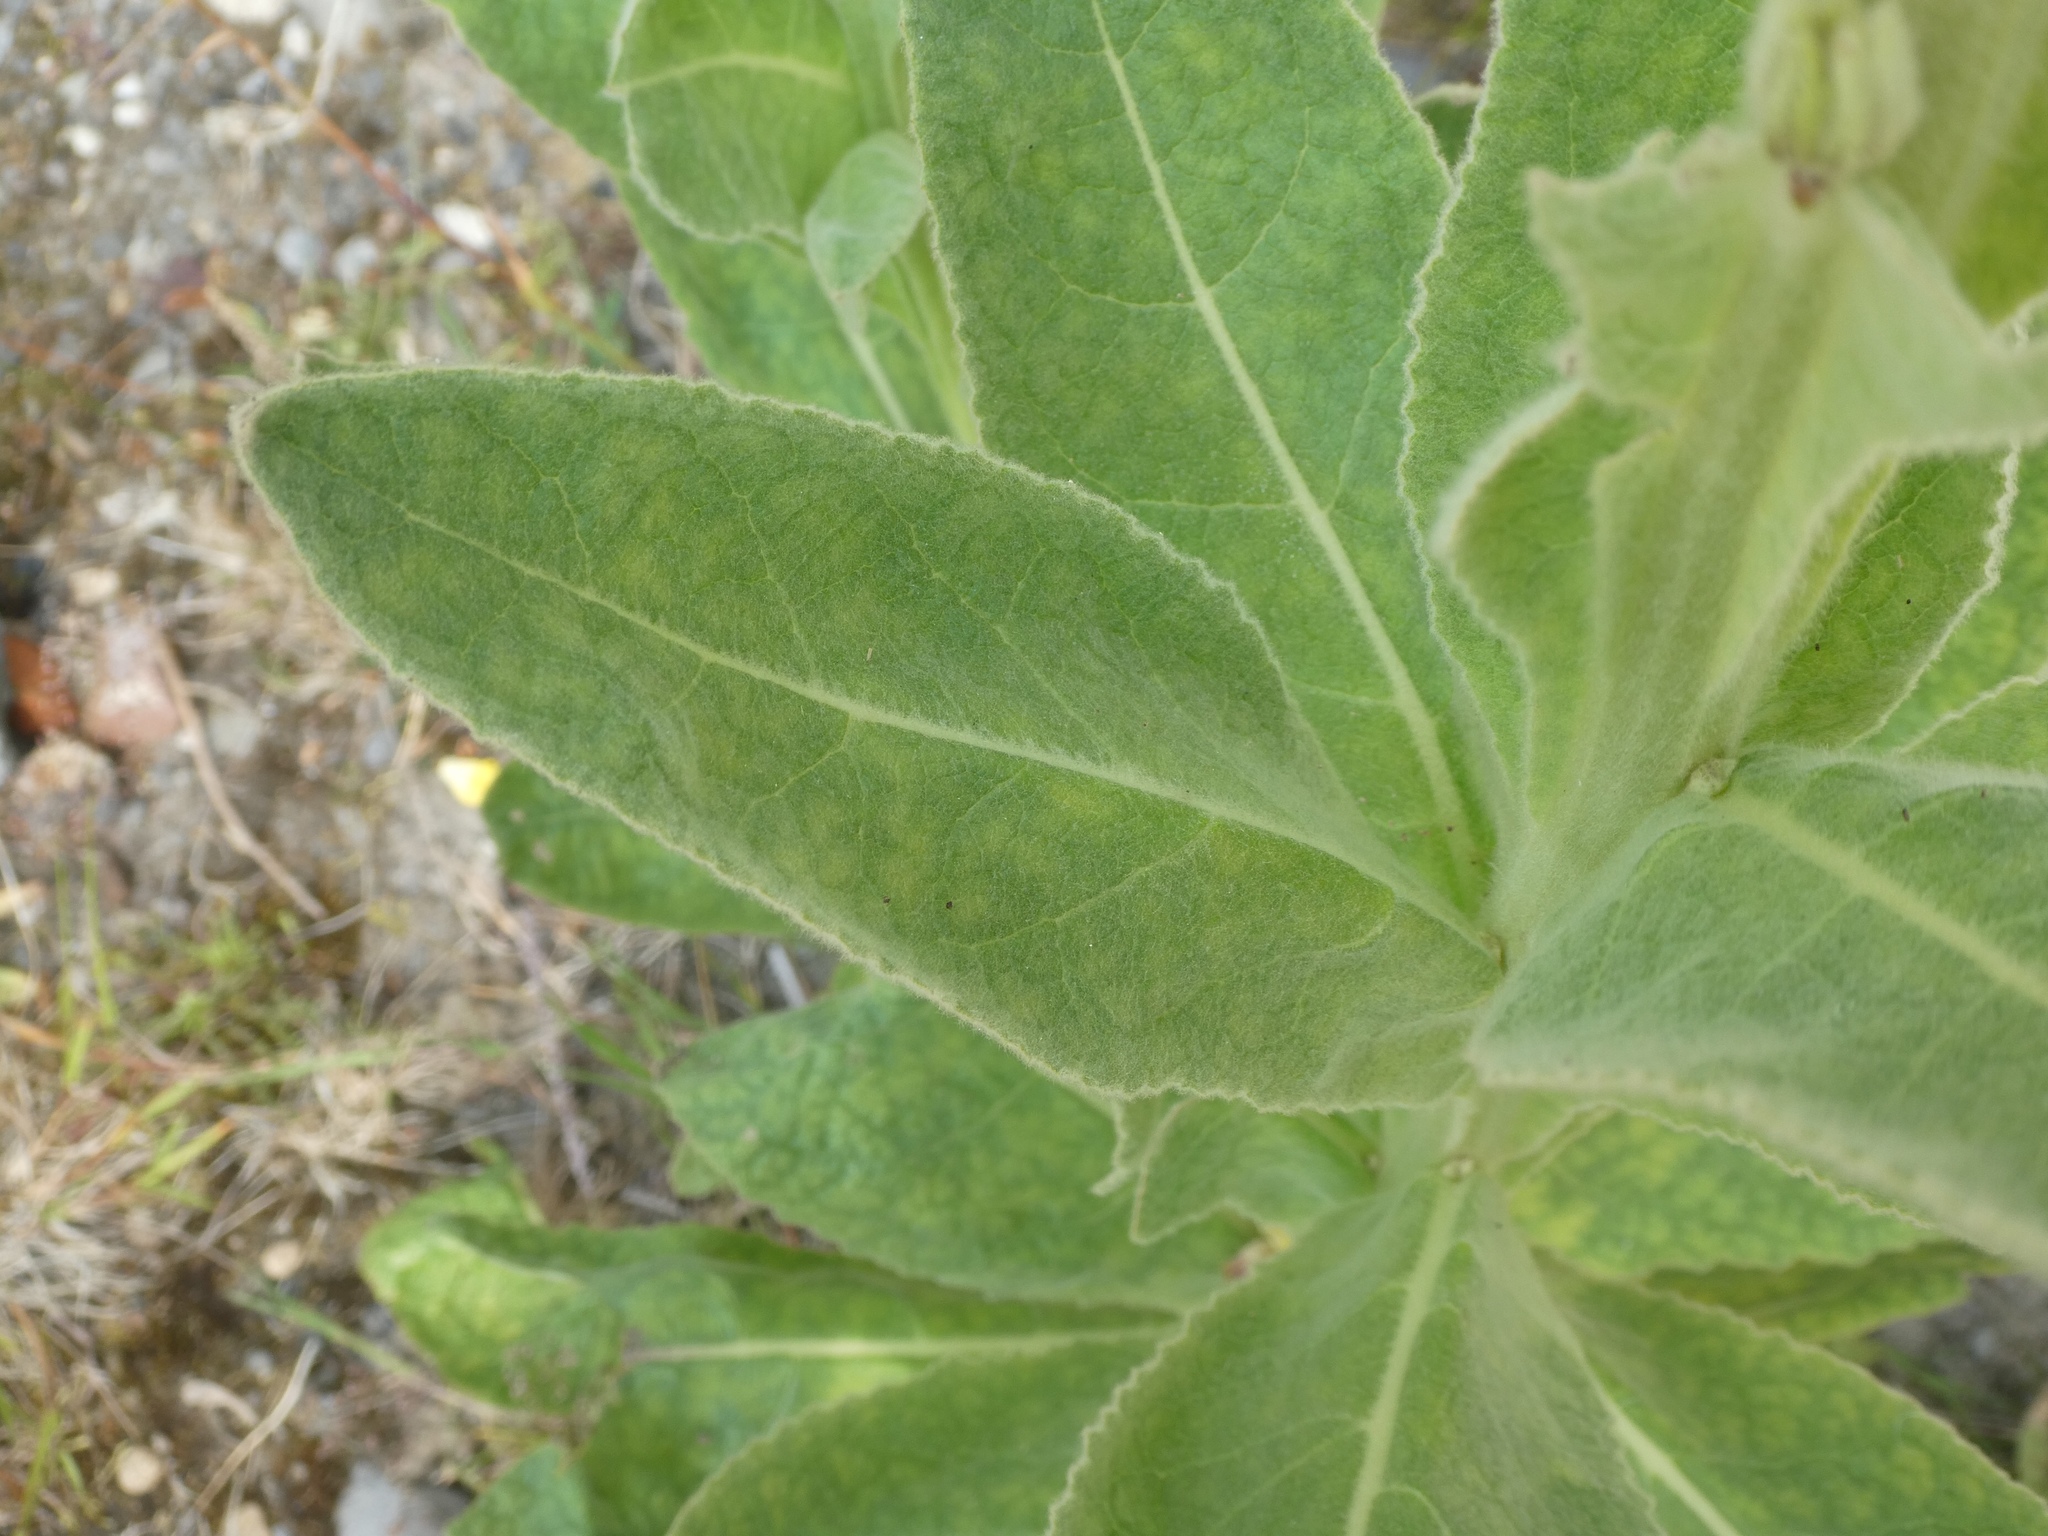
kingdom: Plantae
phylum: Tracheophyta
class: Magnoliopsida
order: Lamiales
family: Scrophulariaceae
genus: Verbascum
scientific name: Verbascum thapsus
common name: Common mullein
